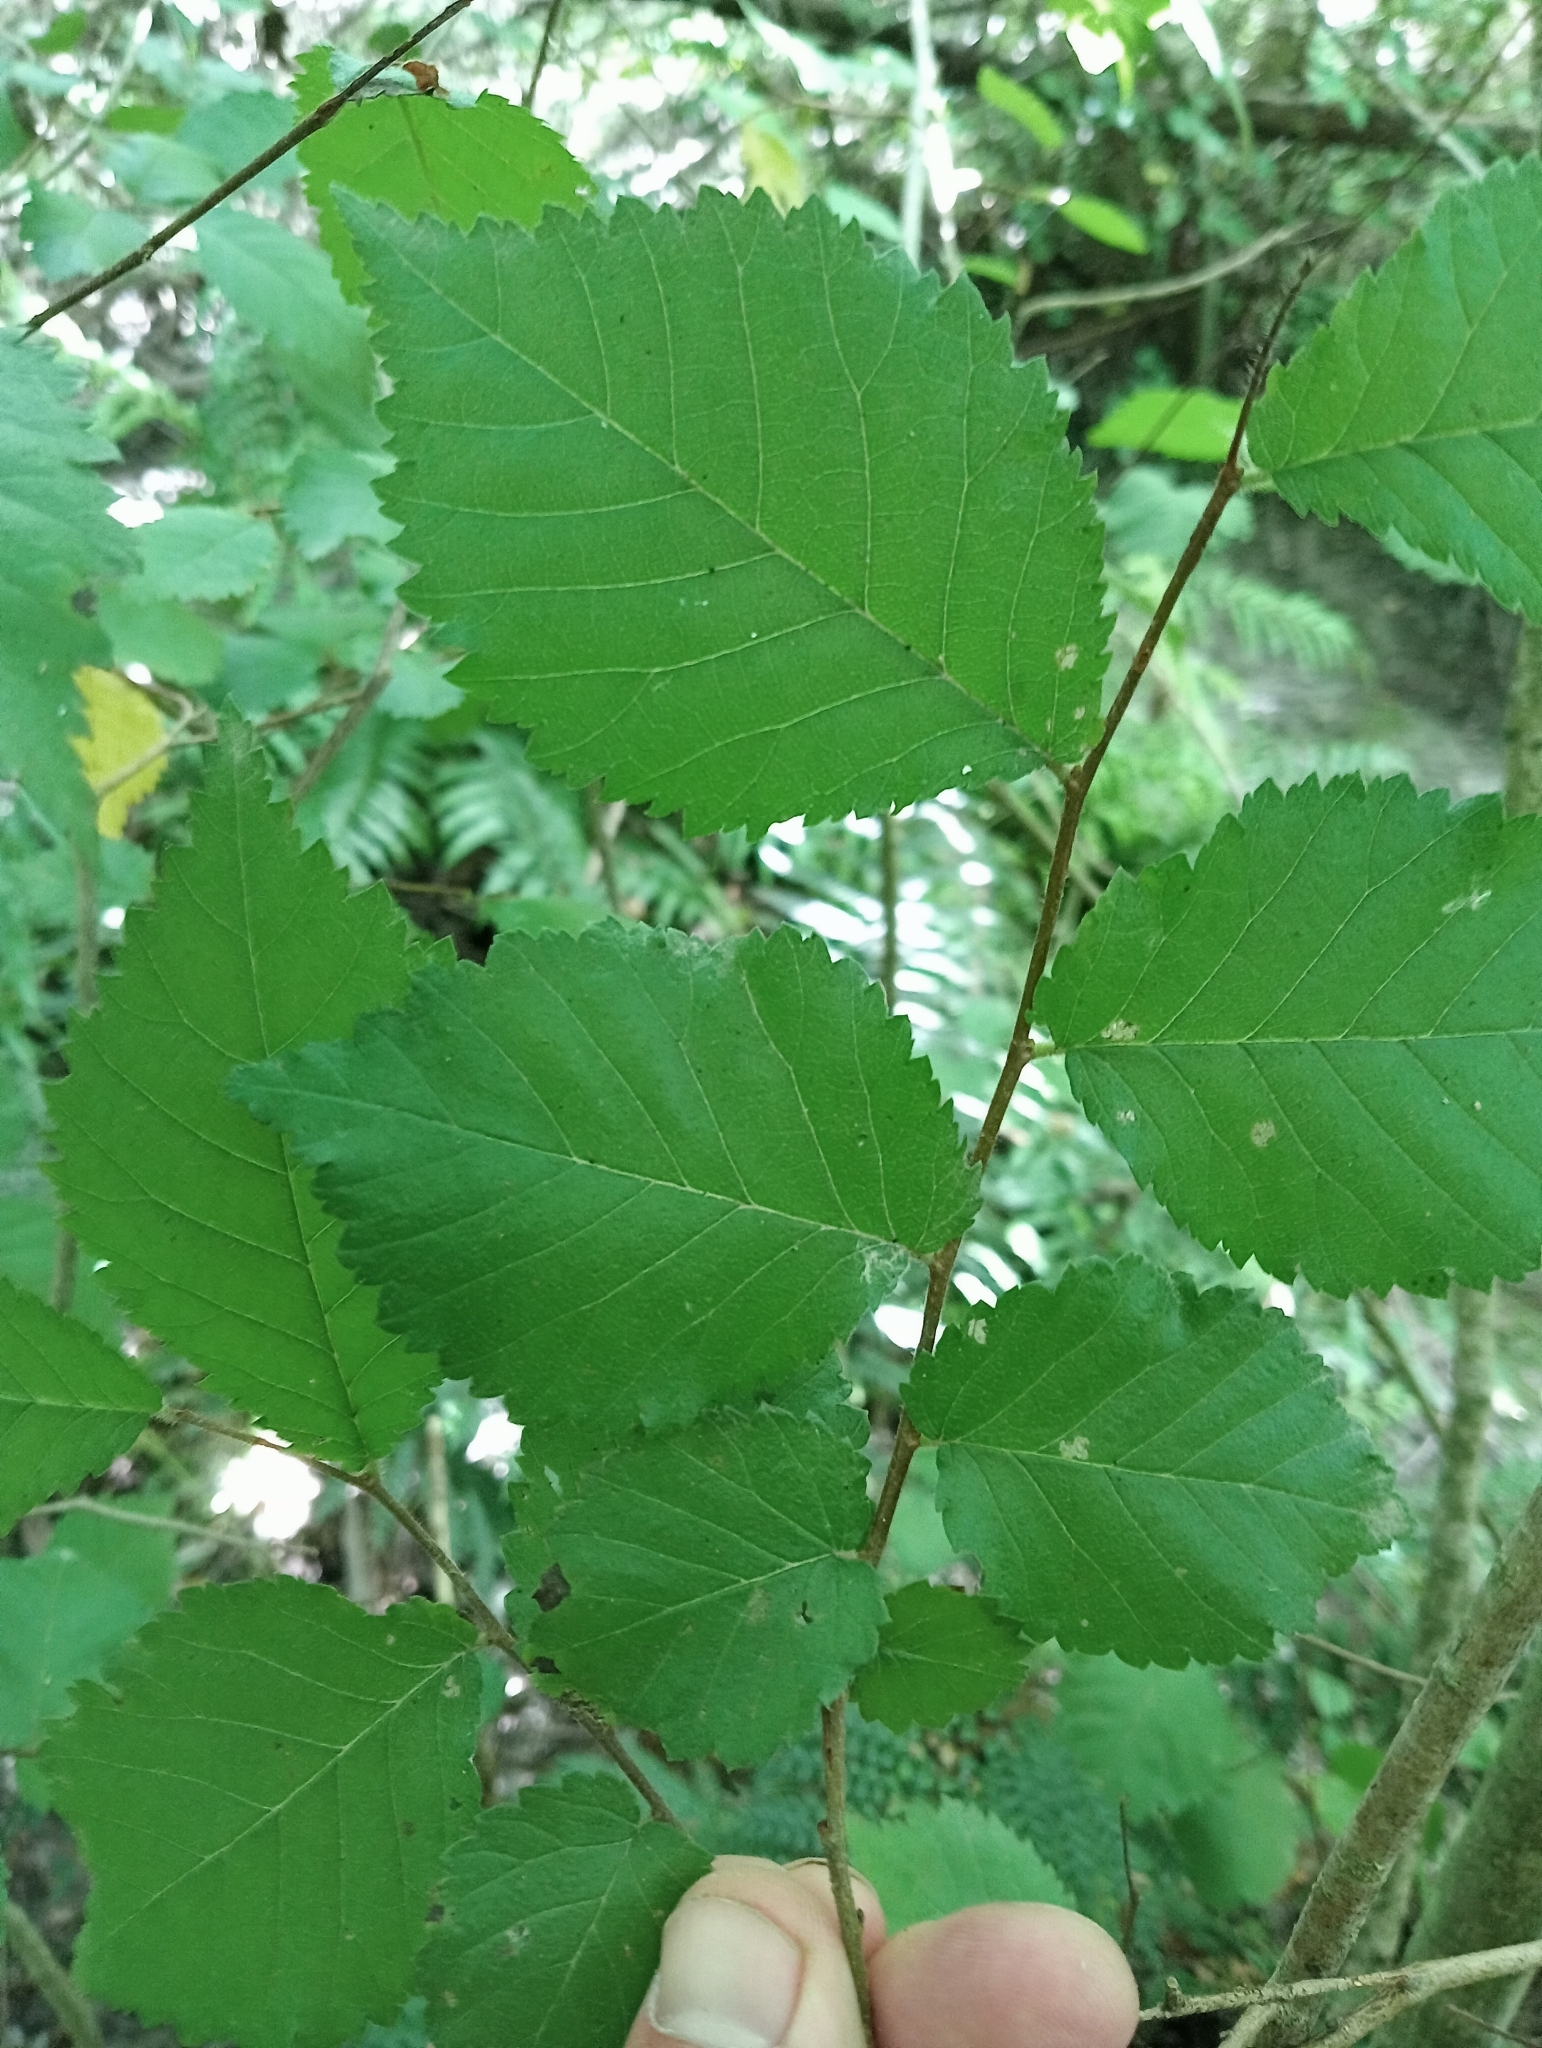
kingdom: Plantae
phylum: Tracheophyta
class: Magnoliopsida
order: Rosales
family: Ulmaceae
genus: Ulmus
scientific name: Ulmus hollandica
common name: Dutch elm
